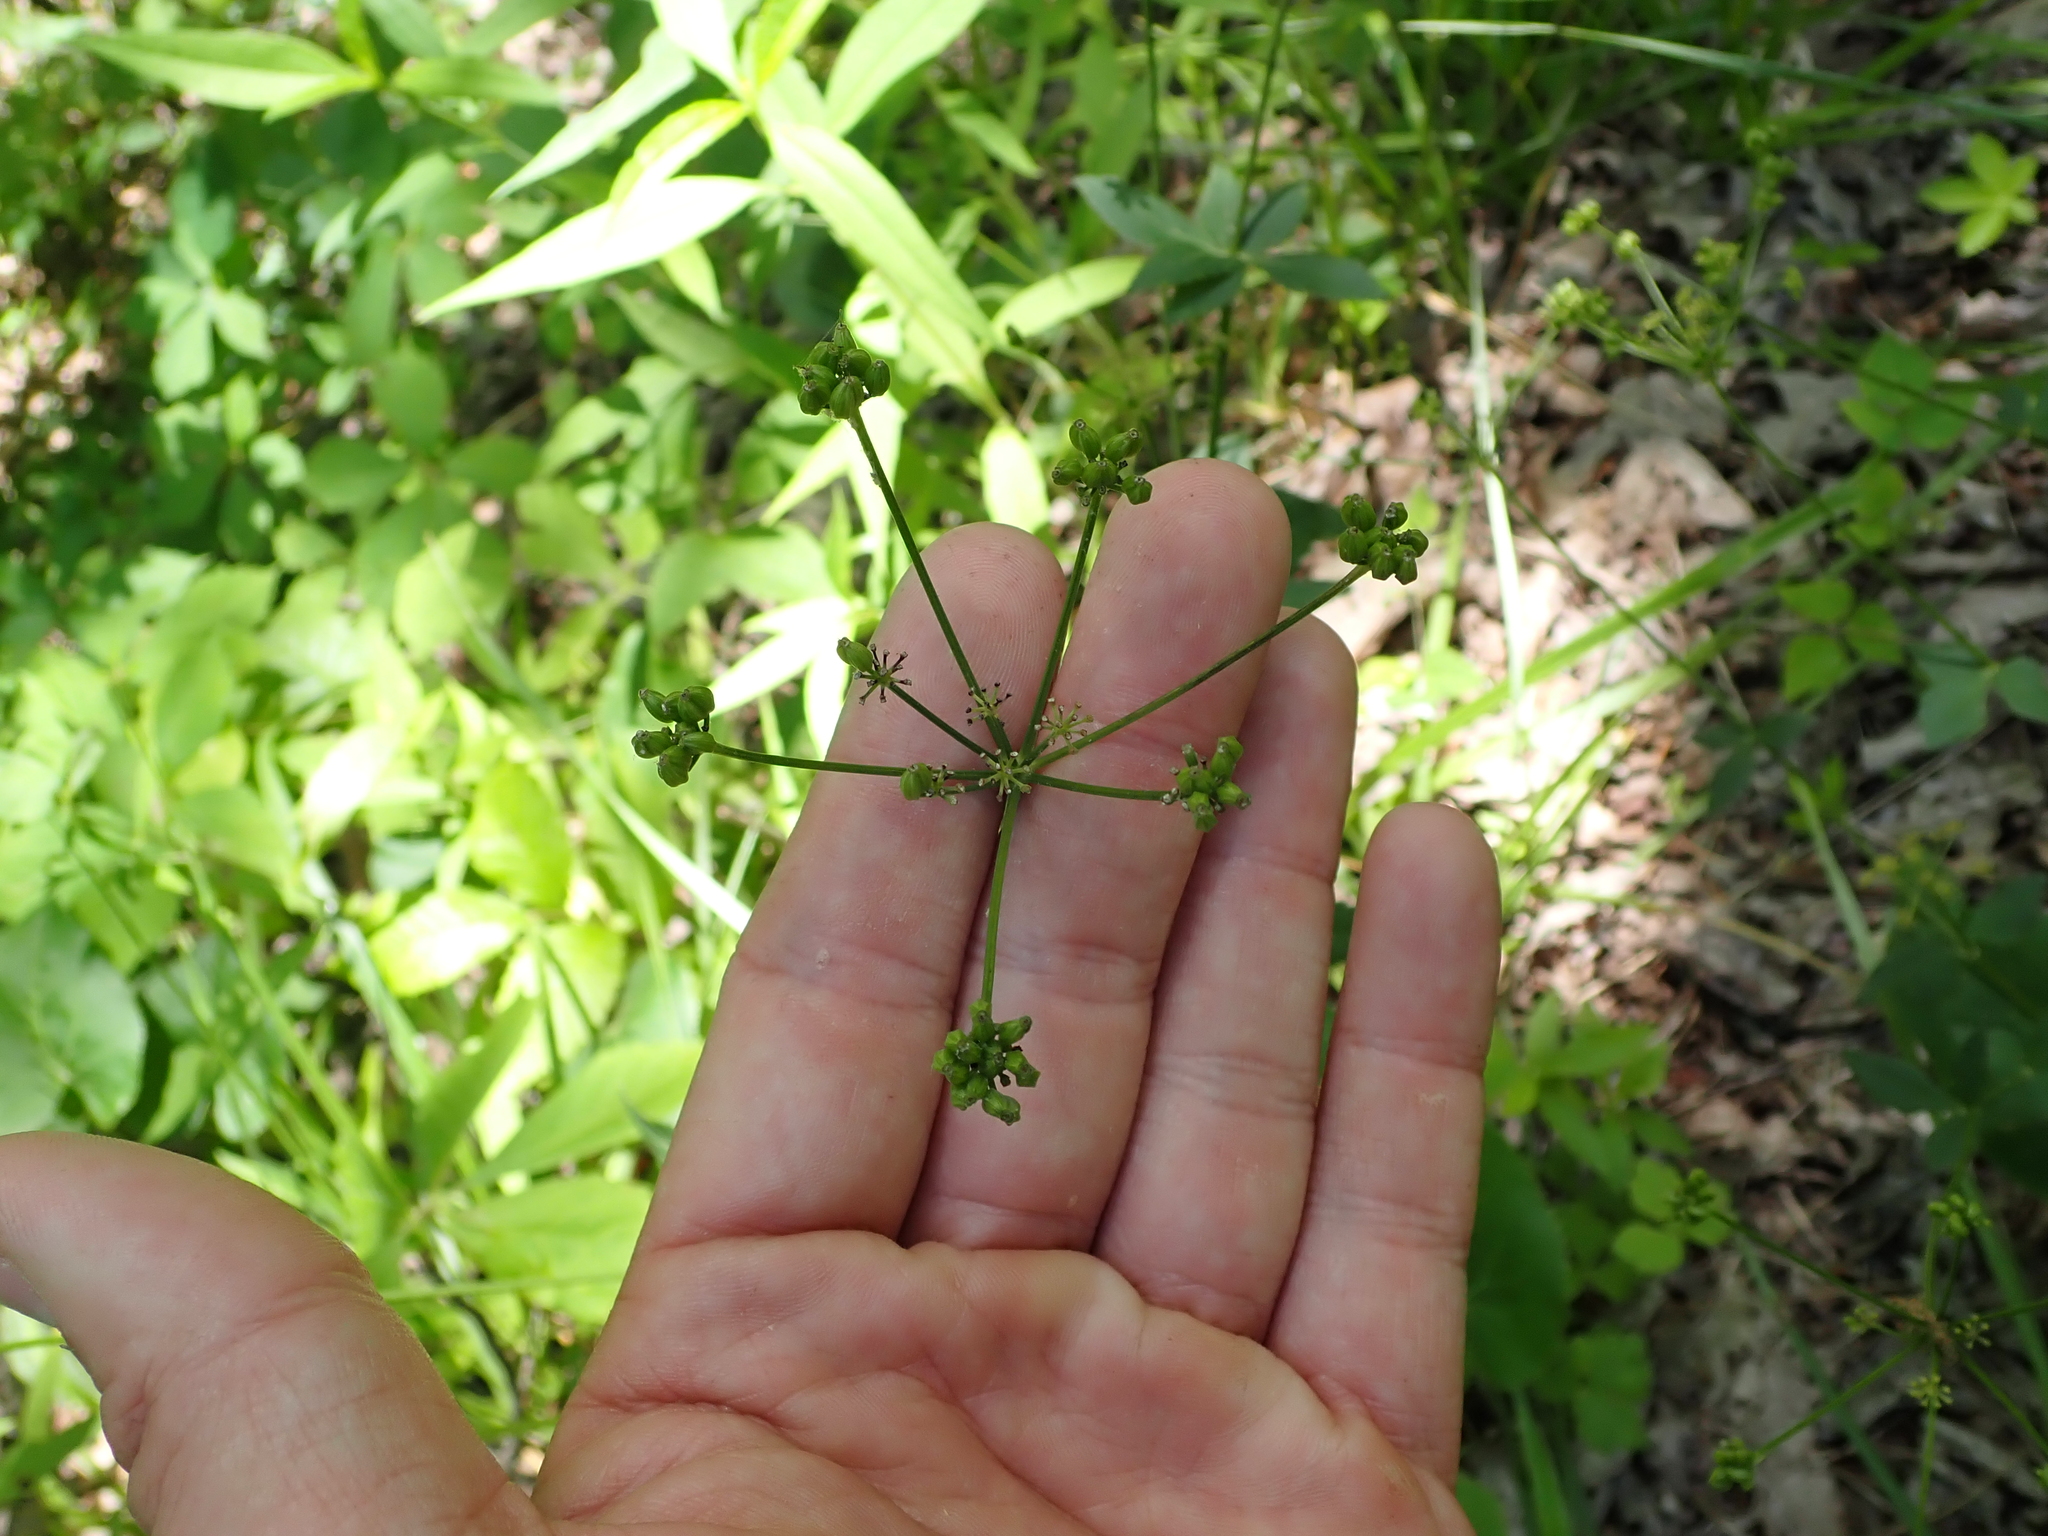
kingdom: Plantae
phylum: Tracheophyta
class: Magnoliopsida
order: Apiales
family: Apiaceae
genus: Thaspium
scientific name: Thaspium trifoliatum
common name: Purple meadow-parsnip
